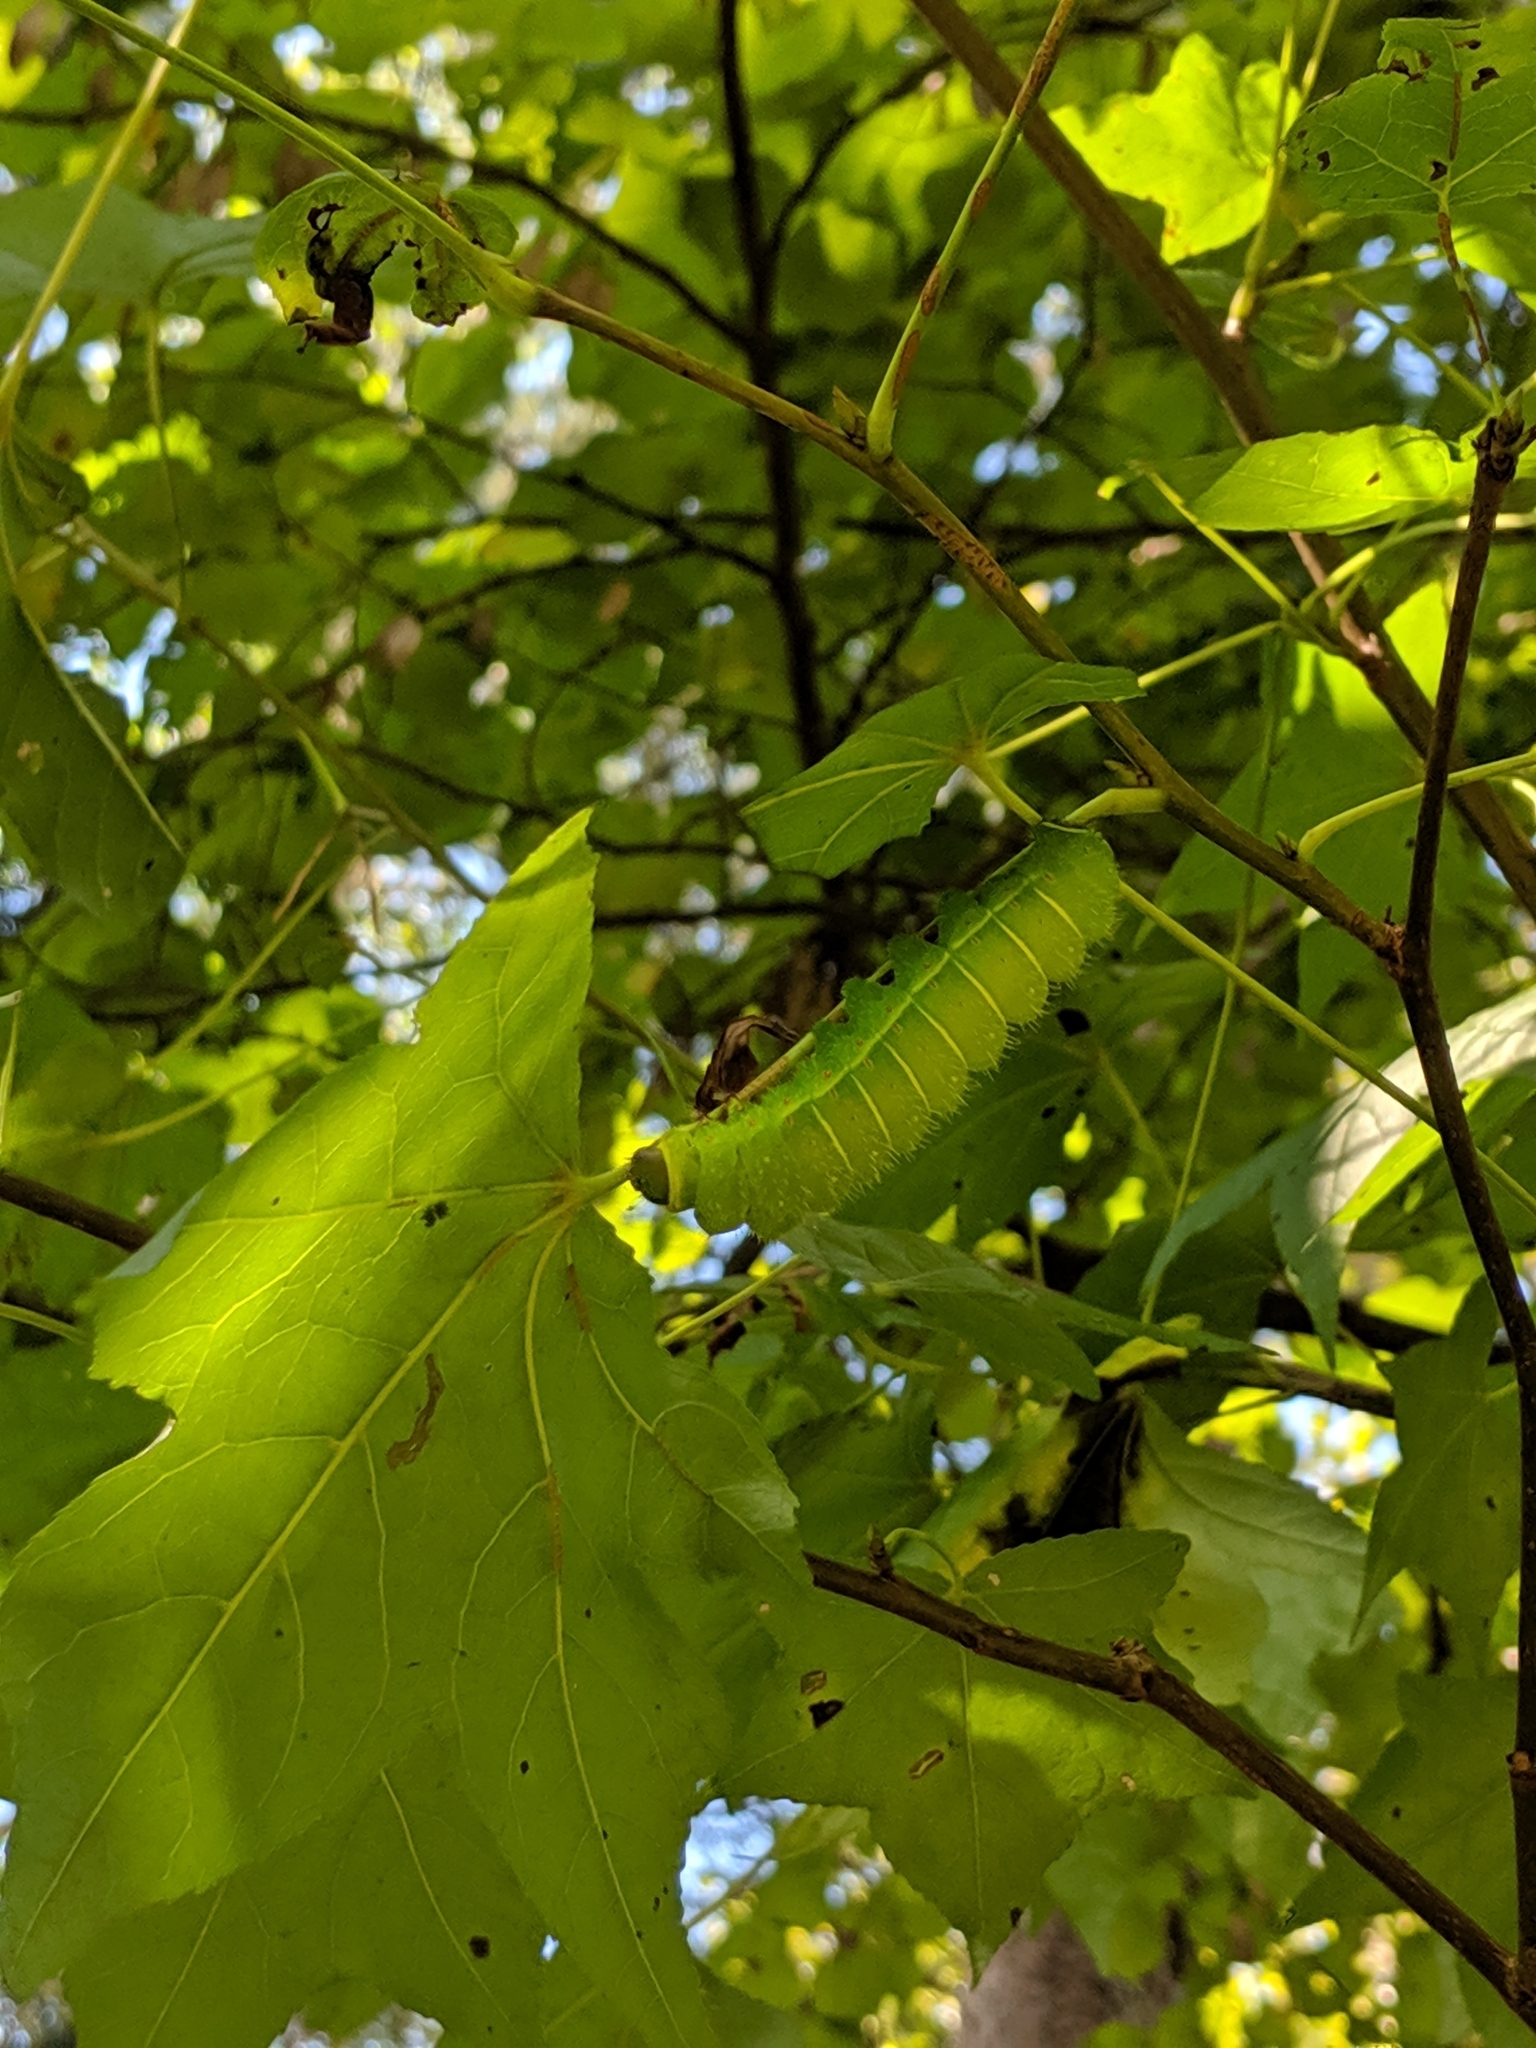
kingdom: Animalia
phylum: Arthropoda
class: Insecta
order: Lepidoptera
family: Saturniidae
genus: Actias
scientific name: Actias luna
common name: Luna moth
